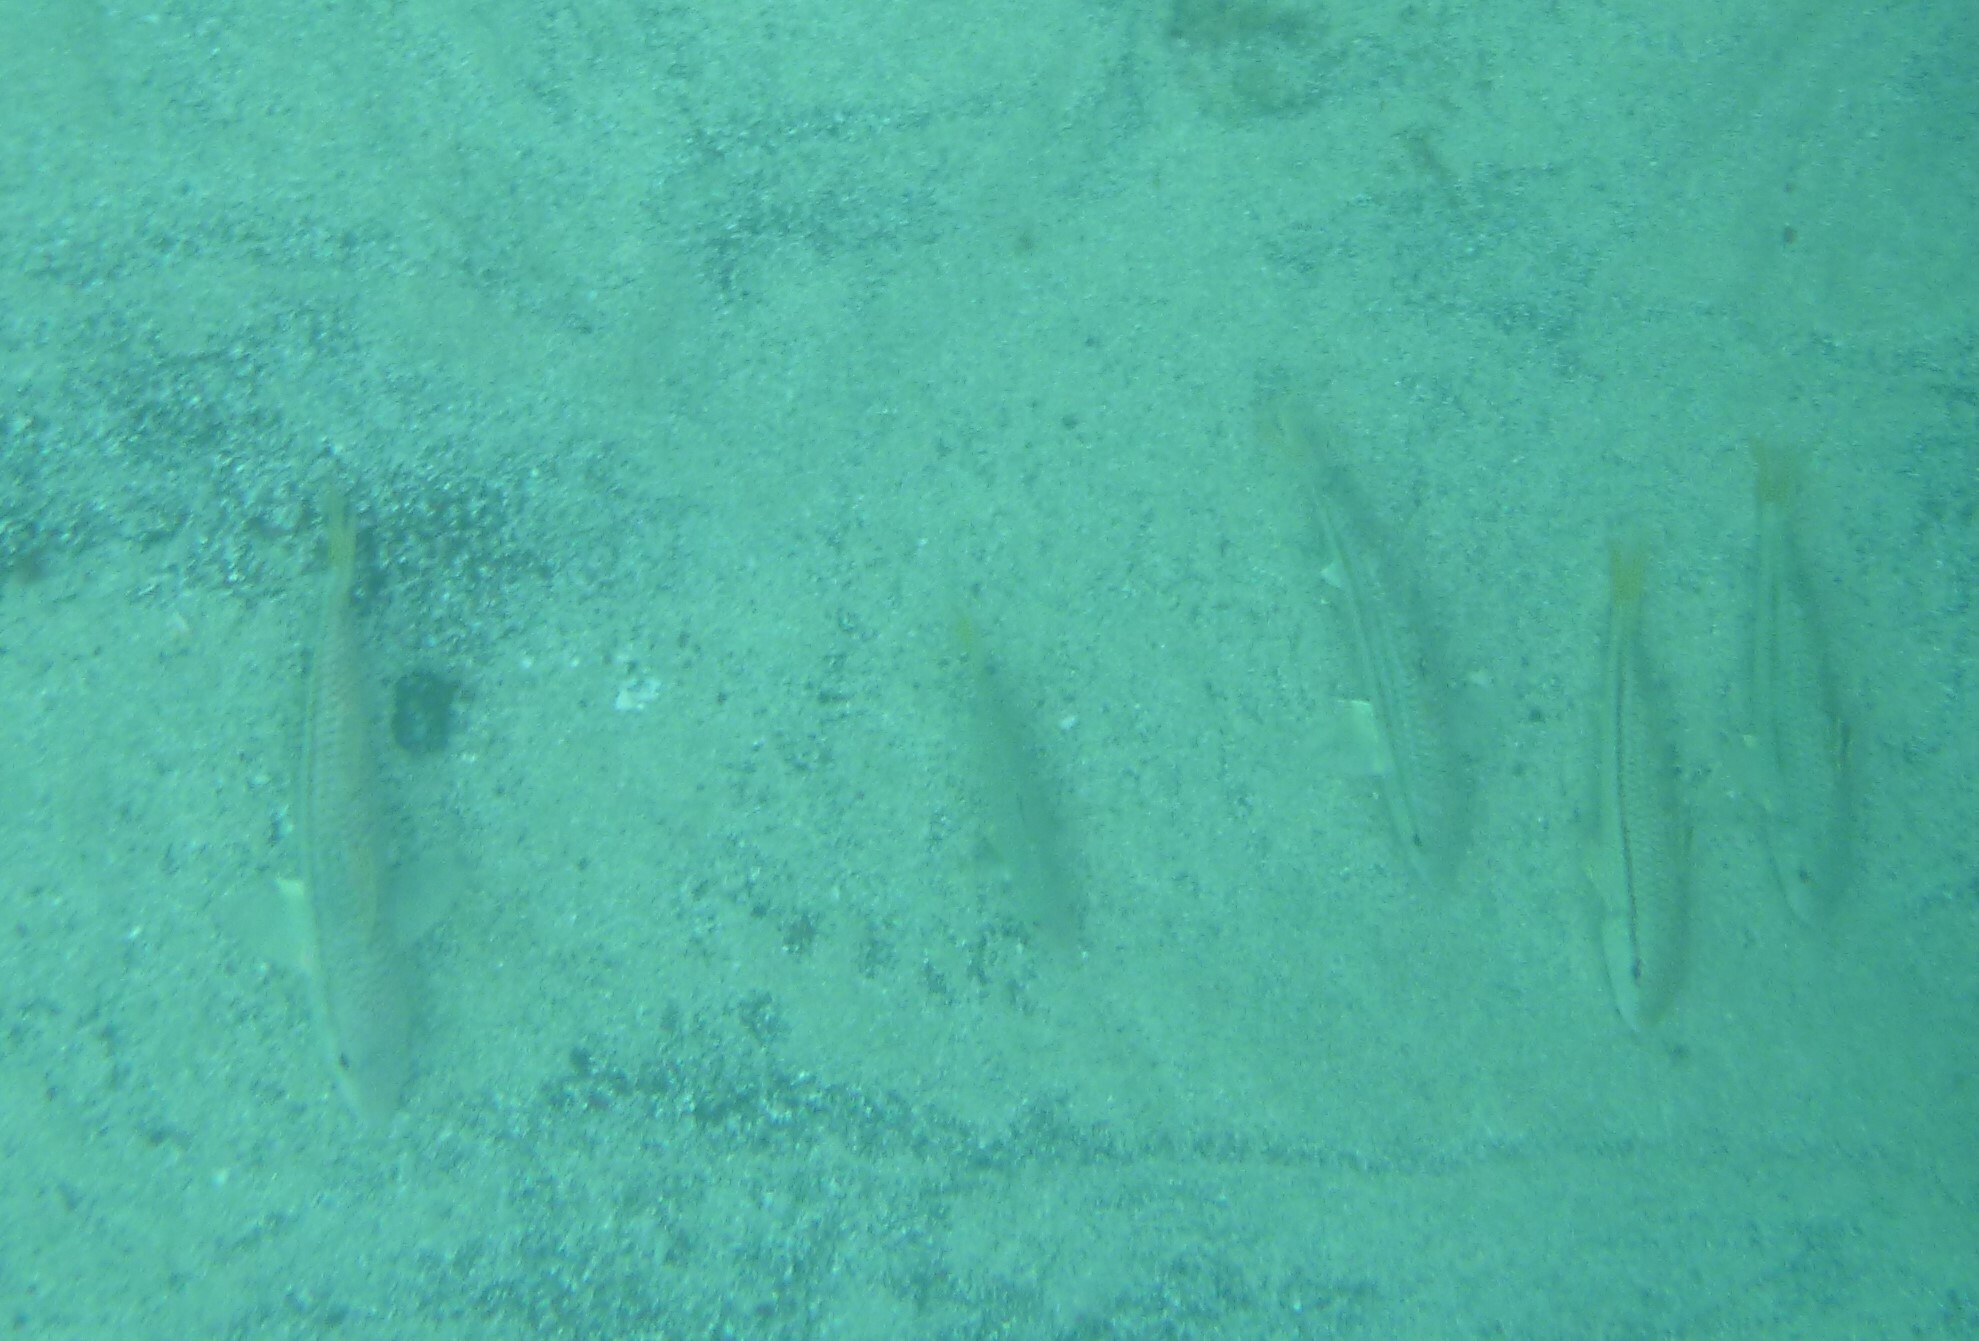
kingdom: Animalia
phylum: Chordata
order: Perciformes
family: Mullidae
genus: Mullus
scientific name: Mullus surmuletus
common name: Red mullet
